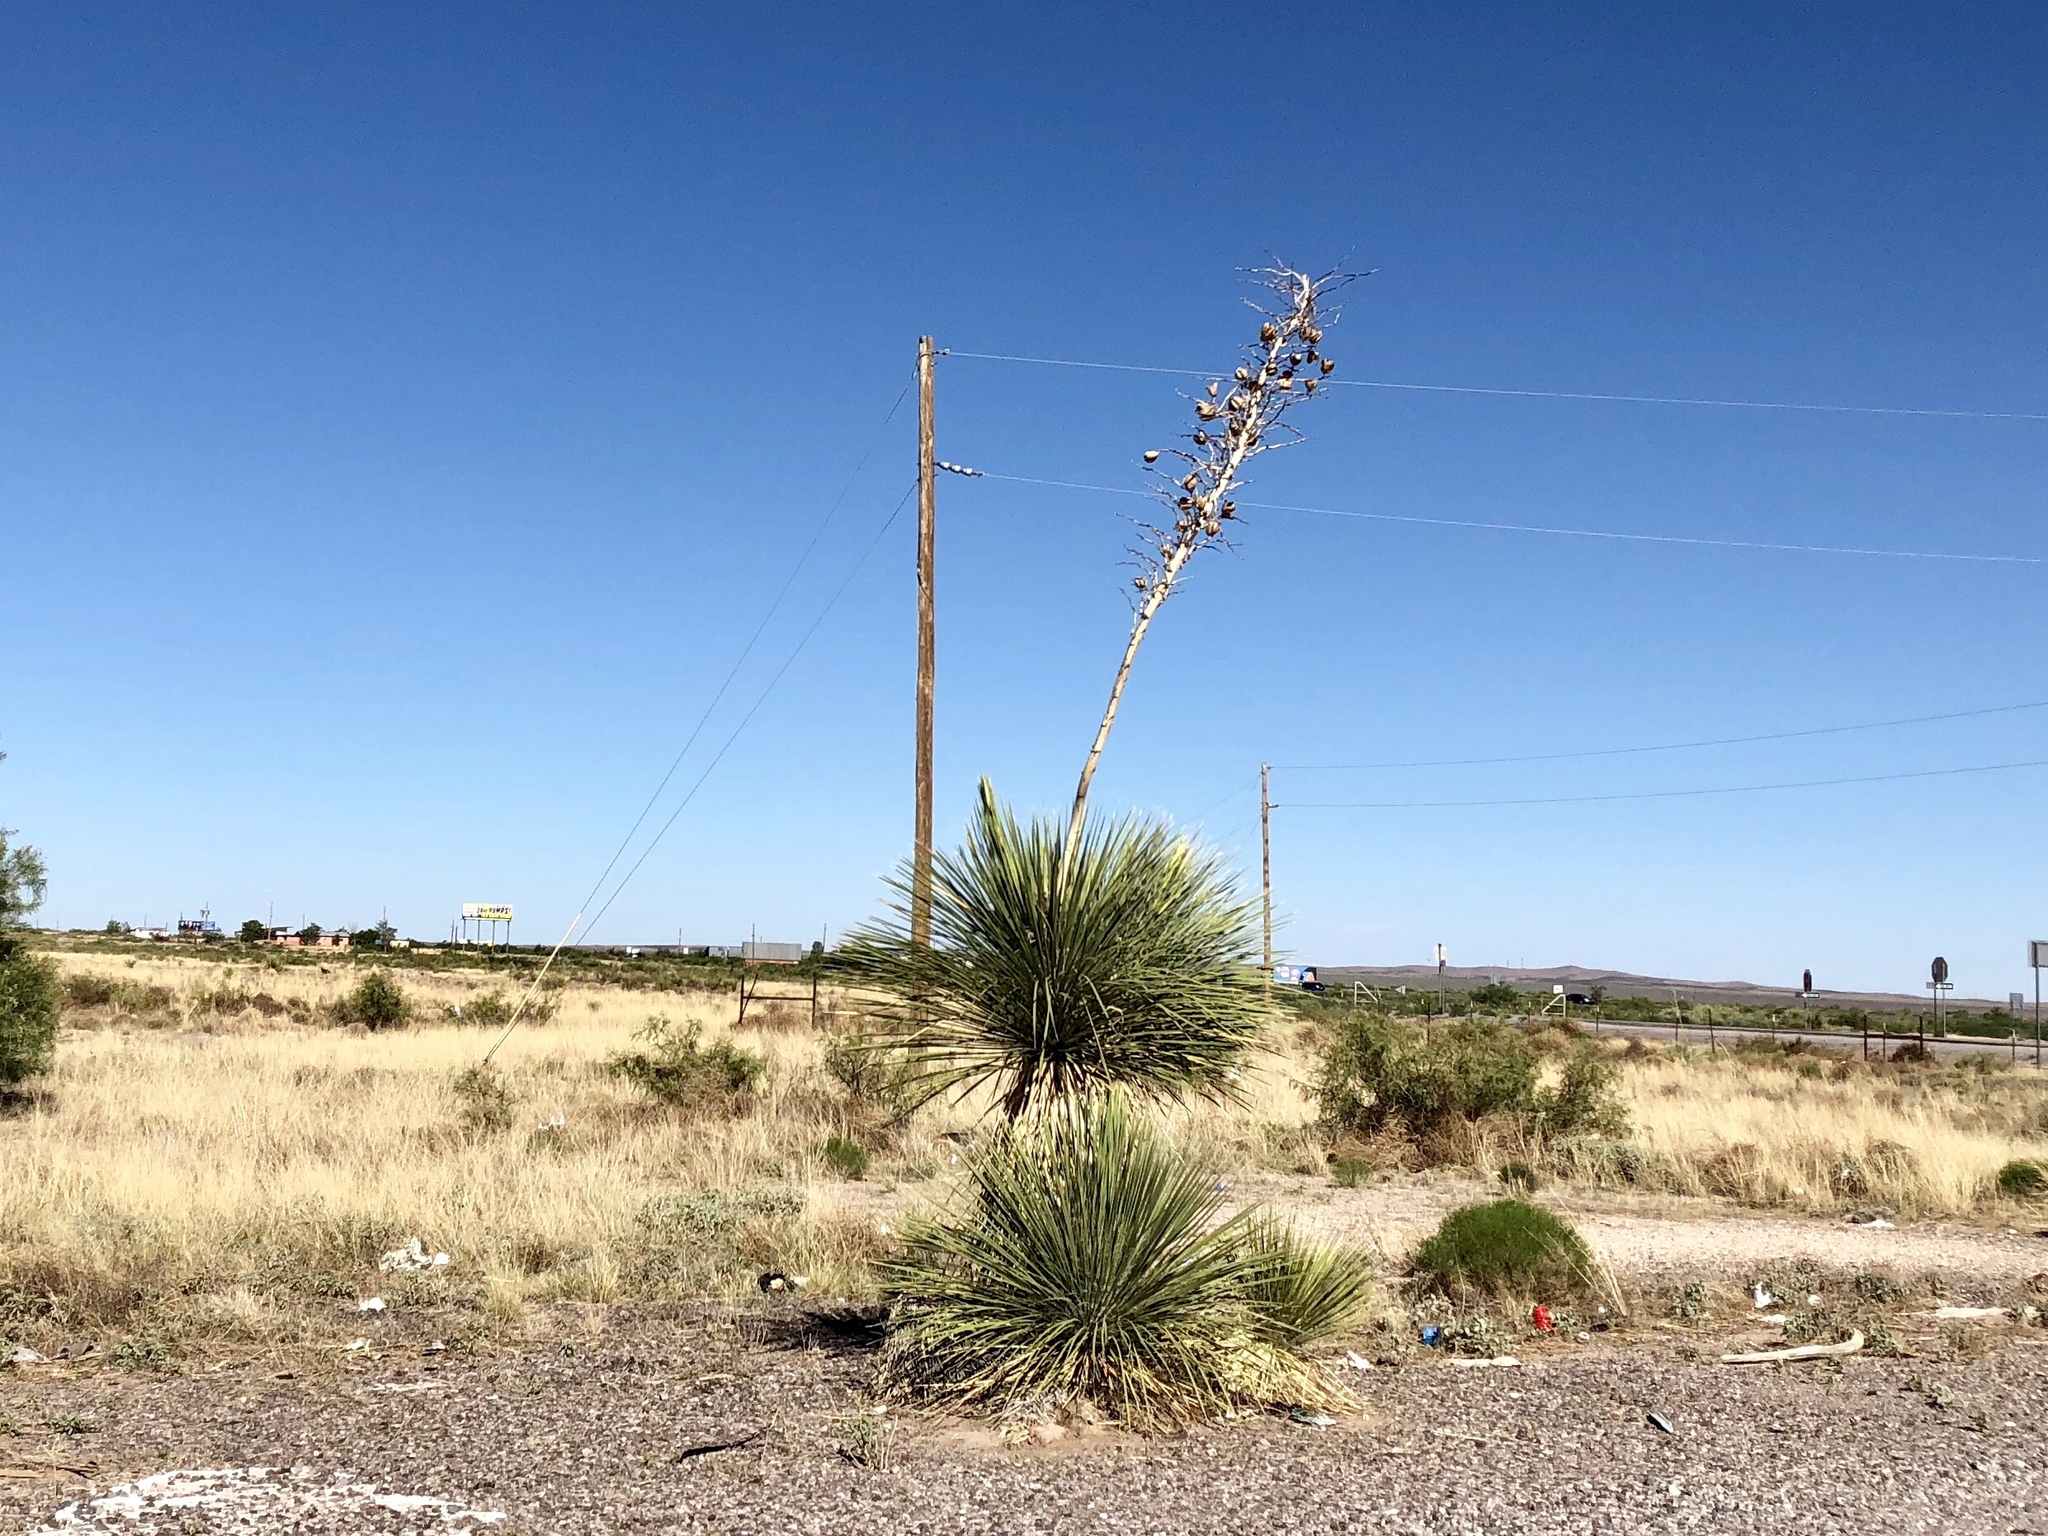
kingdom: Plantae
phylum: Tracheophyta
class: Liliopsida
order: Asparagales
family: Asparagaceae
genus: Yucca
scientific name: Yucca elata
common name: Palmella
